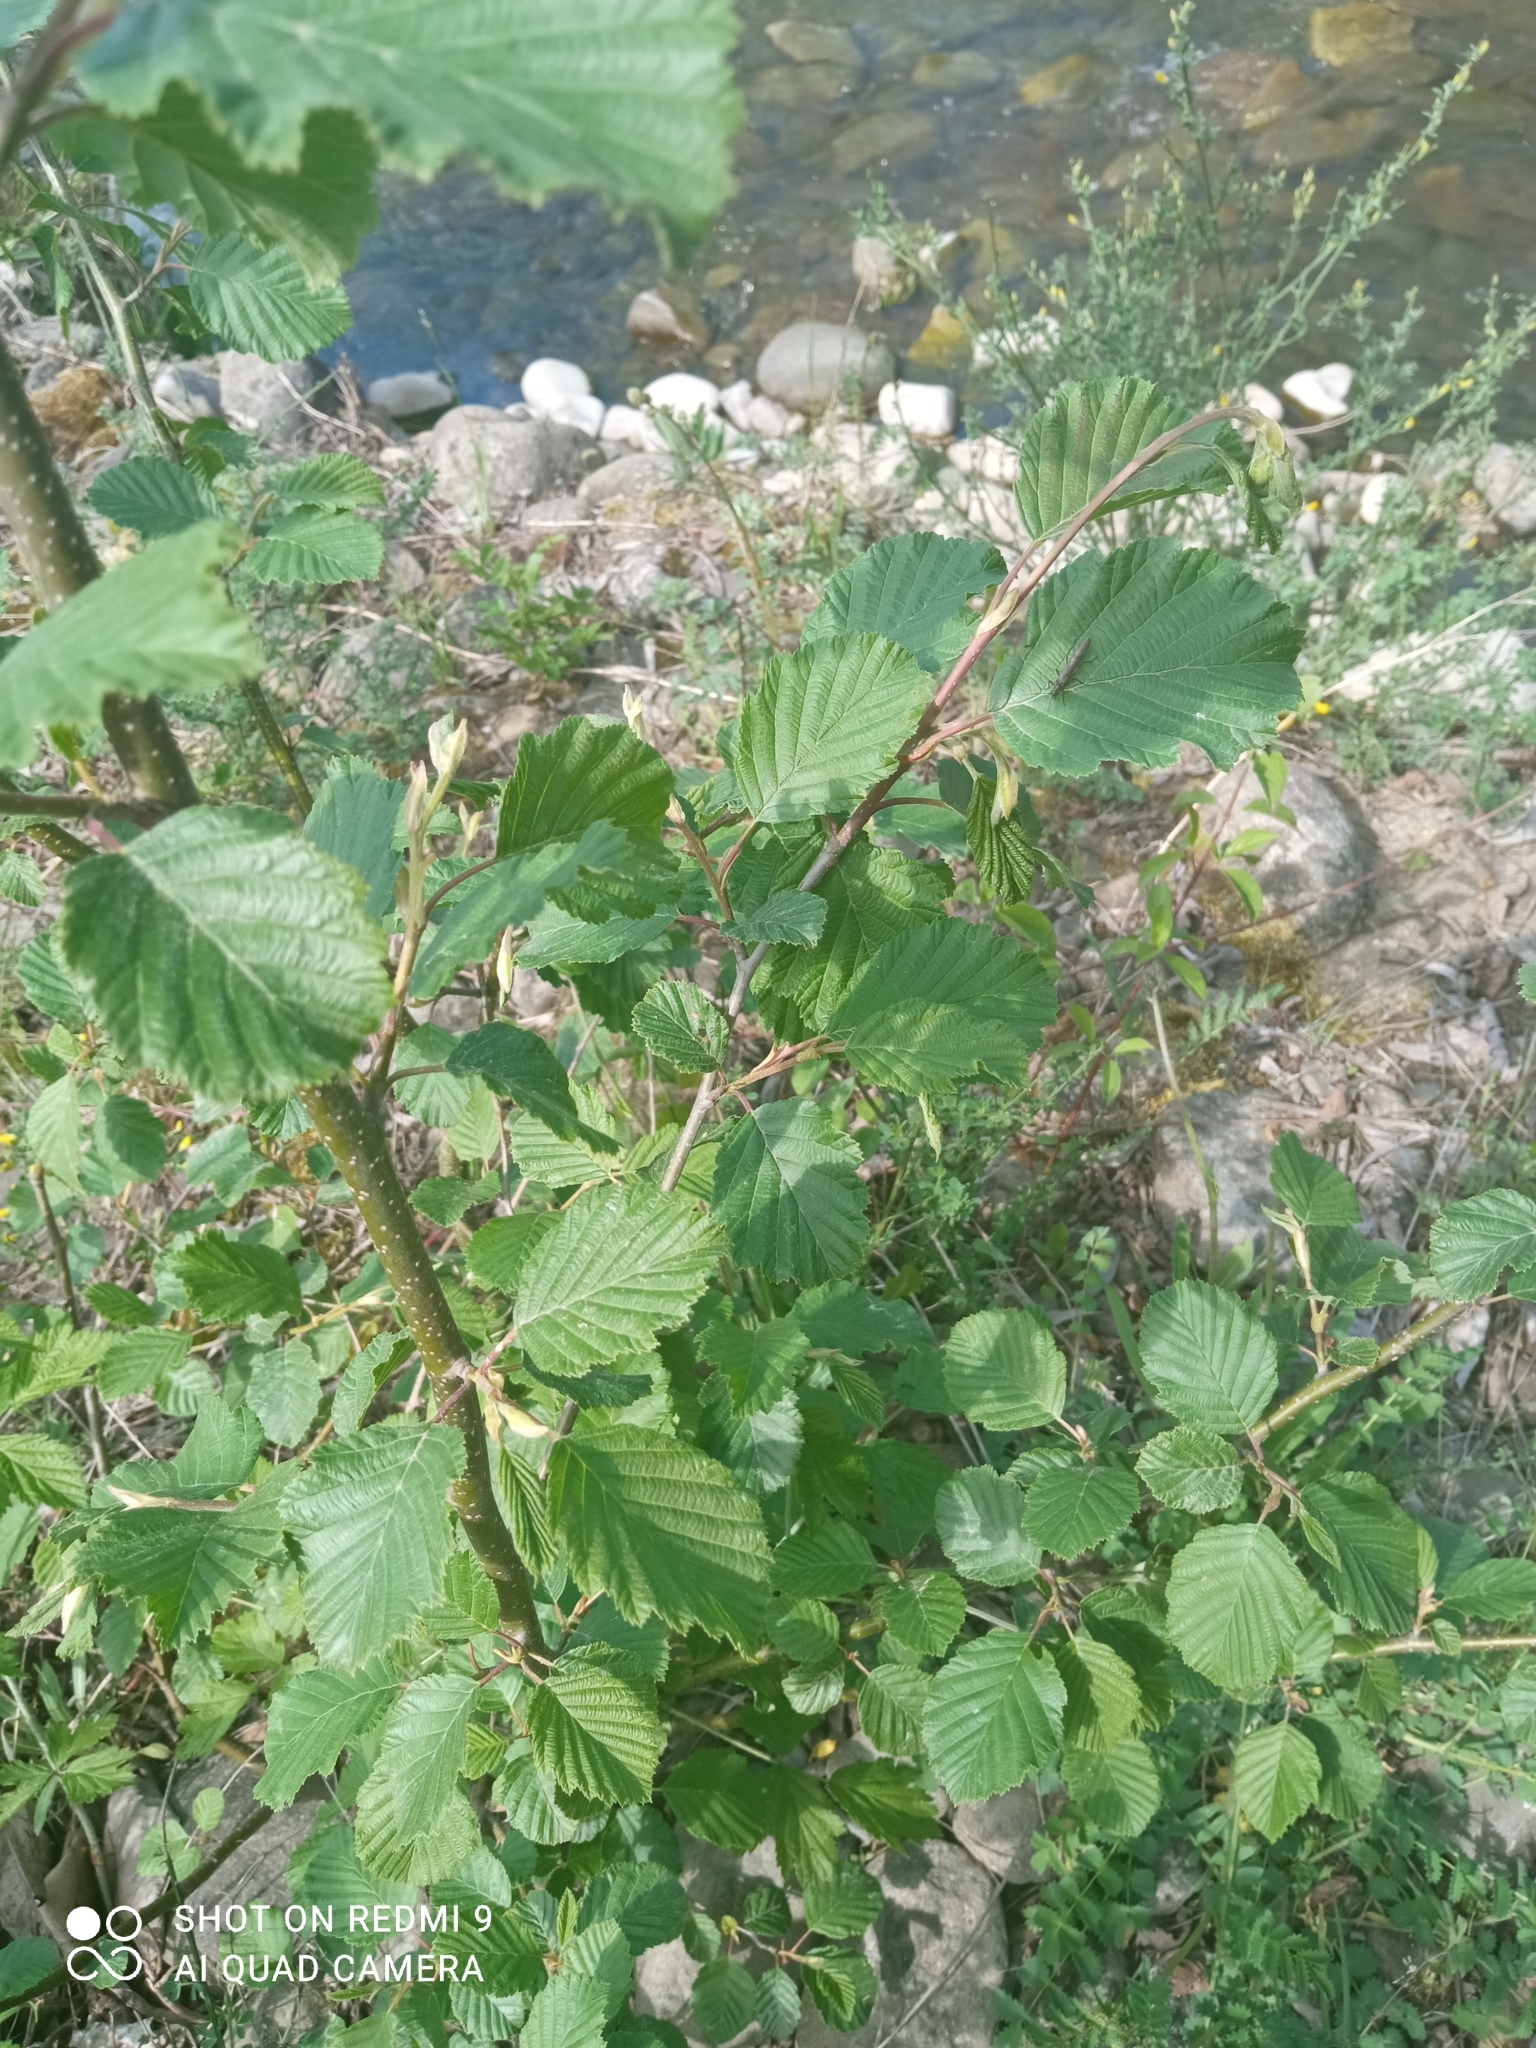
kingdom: Plantae
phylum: Tracheophyta
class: Magnoliopsida
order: Fagales
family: Betulaceae
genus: Alnus
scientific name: Alnus incana
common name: Grey alder
